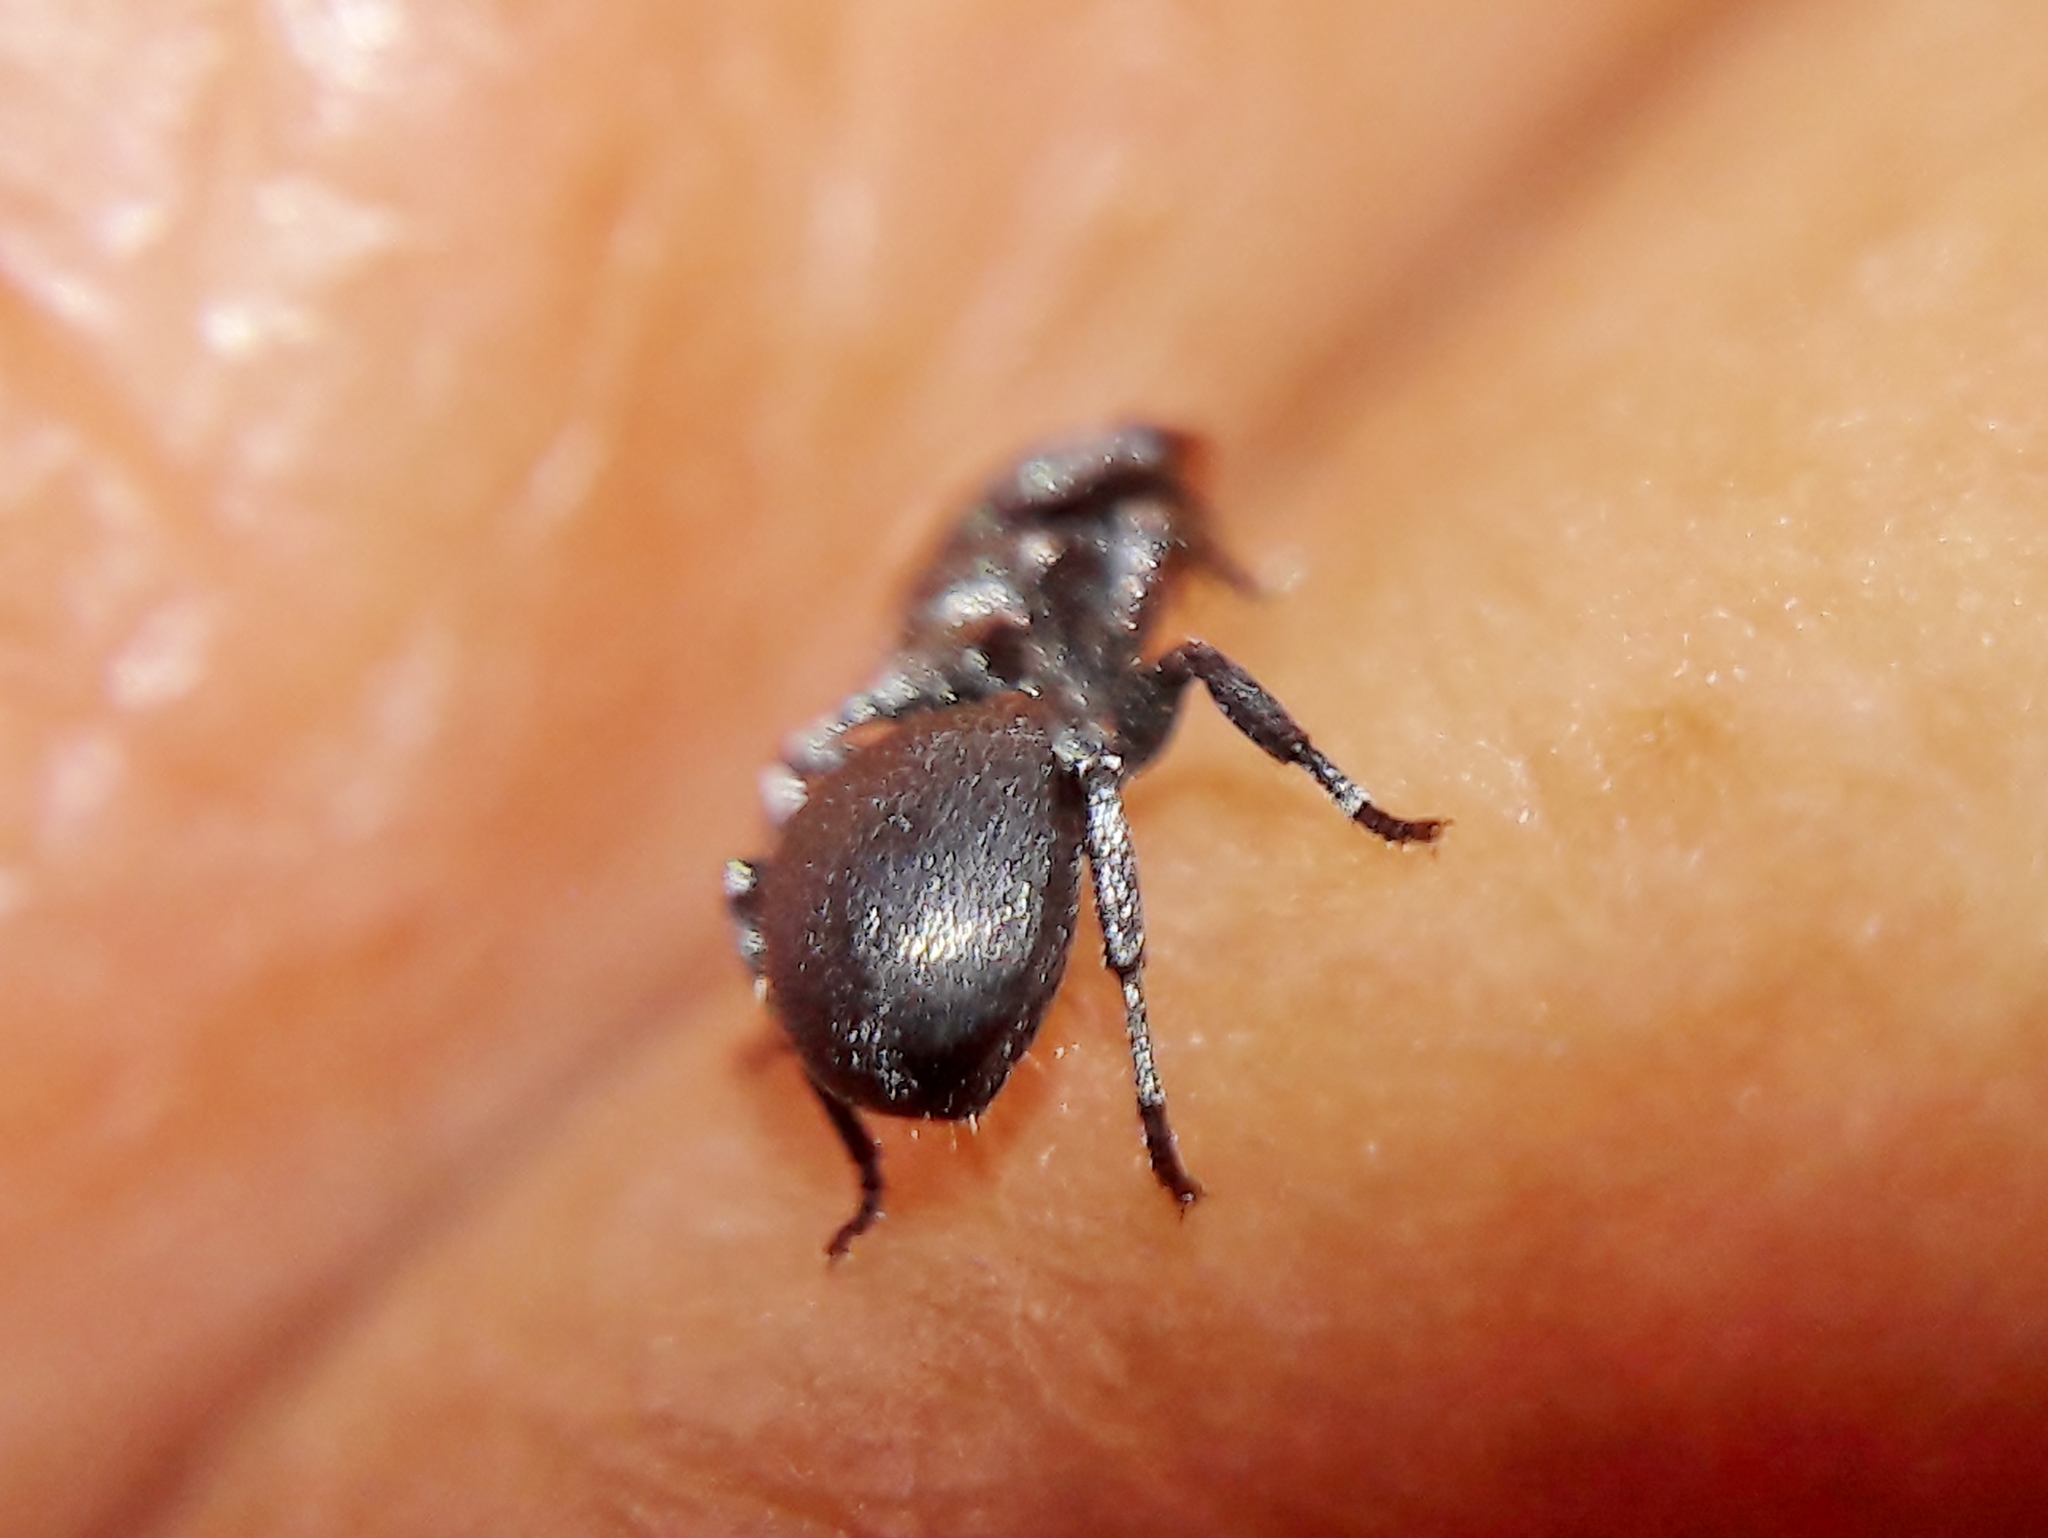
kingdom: Animalia
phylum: Arthropoda
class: Insecta
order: Hymenoptera
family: Formicidae
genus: Cephalotes
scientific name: Cephalotes
